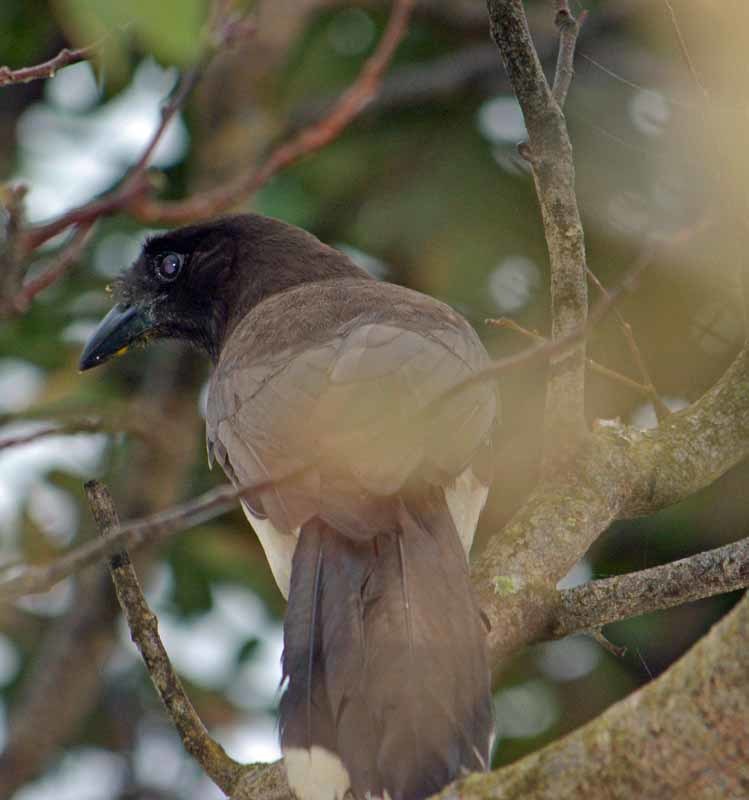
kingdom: Animalia
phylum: Chordata
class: Aves
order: Passeriformes
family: Corvidae
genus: Psilorhinus
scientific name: Psilorhinus morio
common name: Brown jay
